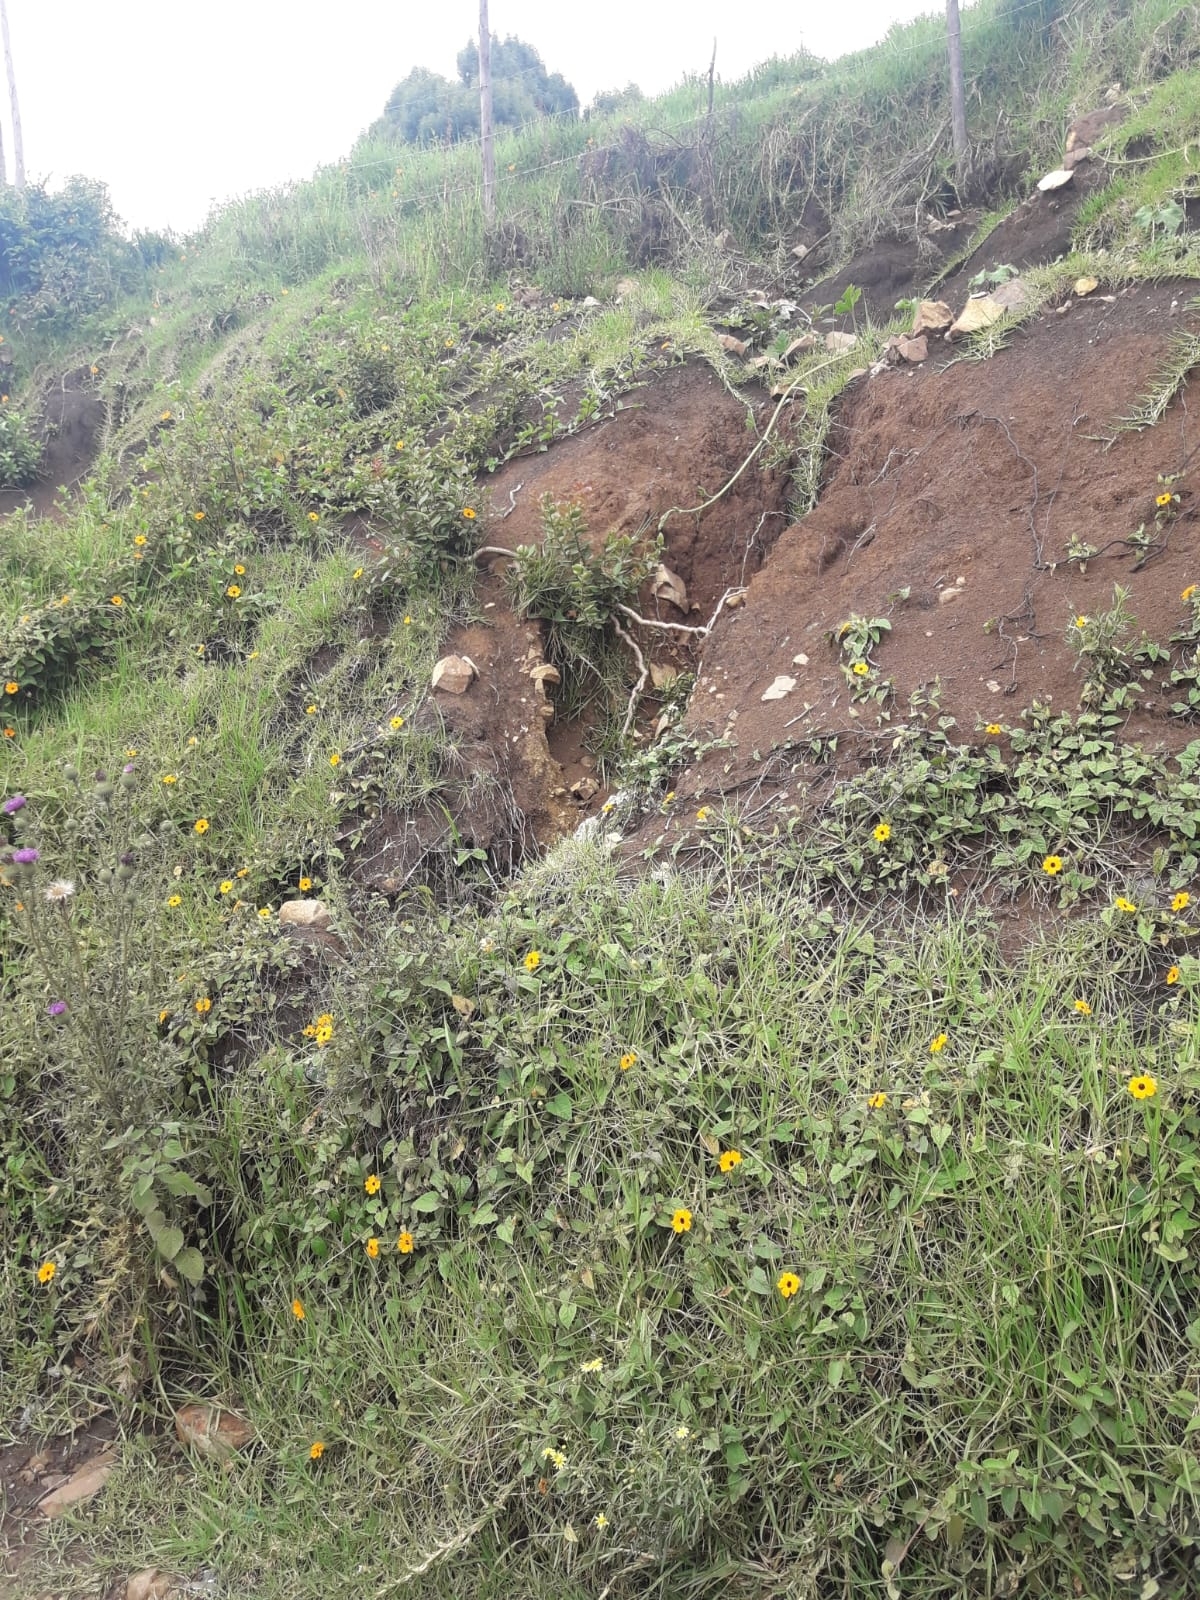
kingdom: Plantae
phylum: Tracheophyta
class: Magnoliopsida
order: Lamiales
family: Acanthaceae
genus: Thunbergia
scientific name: Thunbergia alata
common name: Blackeyed susan vine
